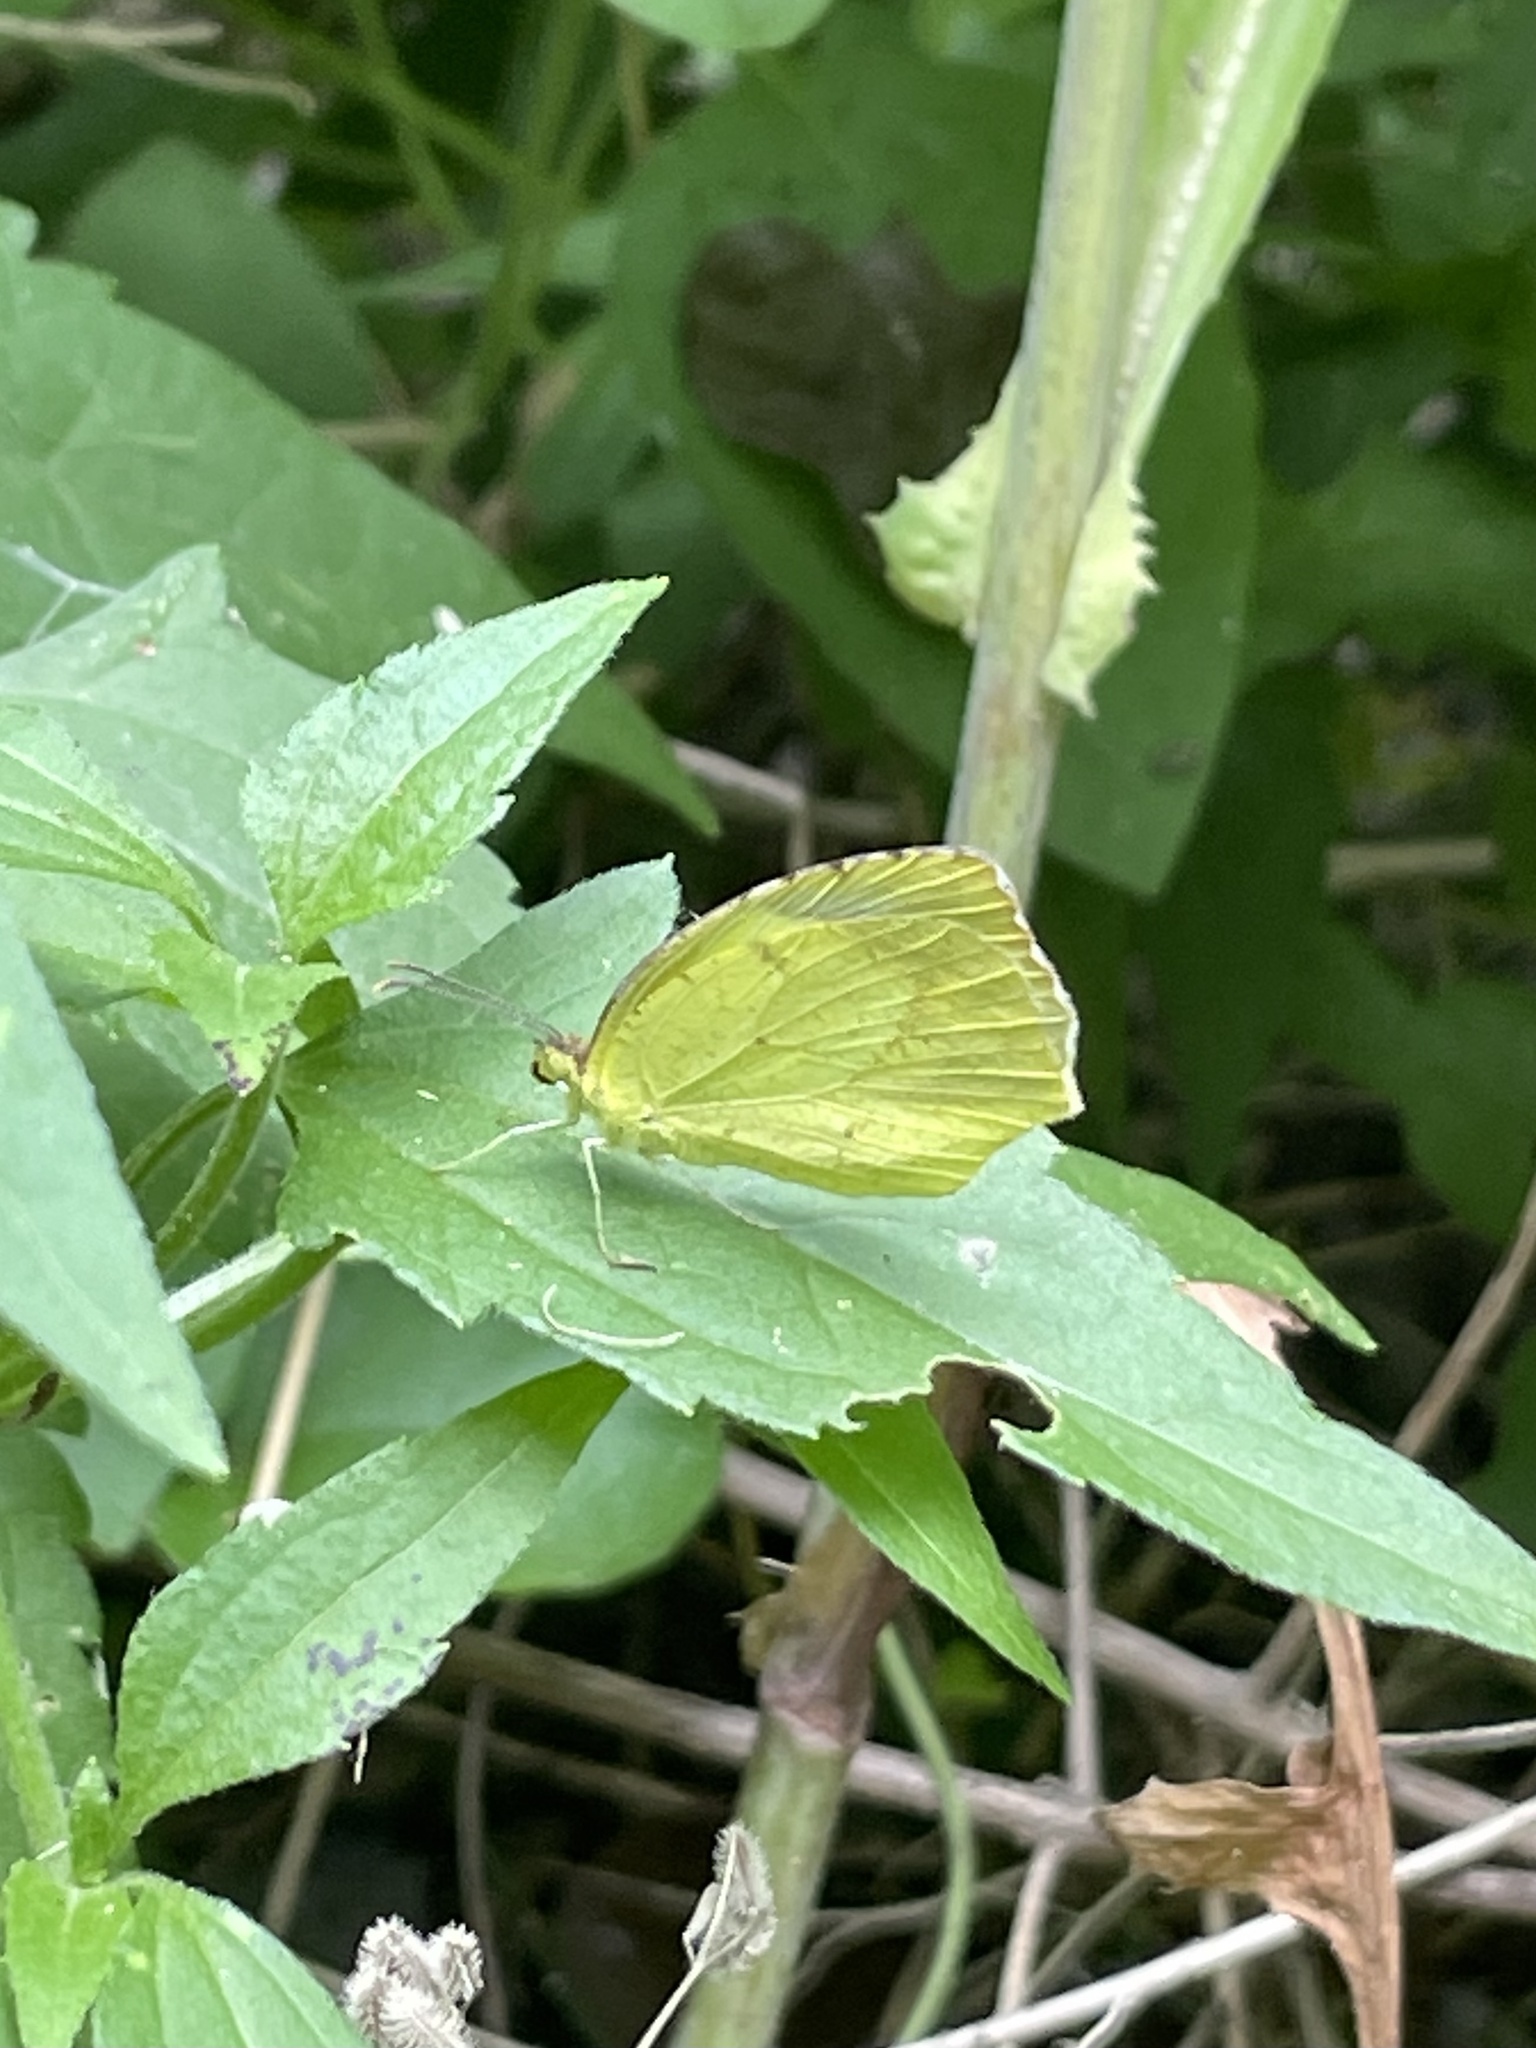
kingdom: Animalia
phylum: Arthropoda
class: Insecta
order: Lepidoptera
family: Pieridae
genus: Abaeis
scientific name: Abaeis mexicana
